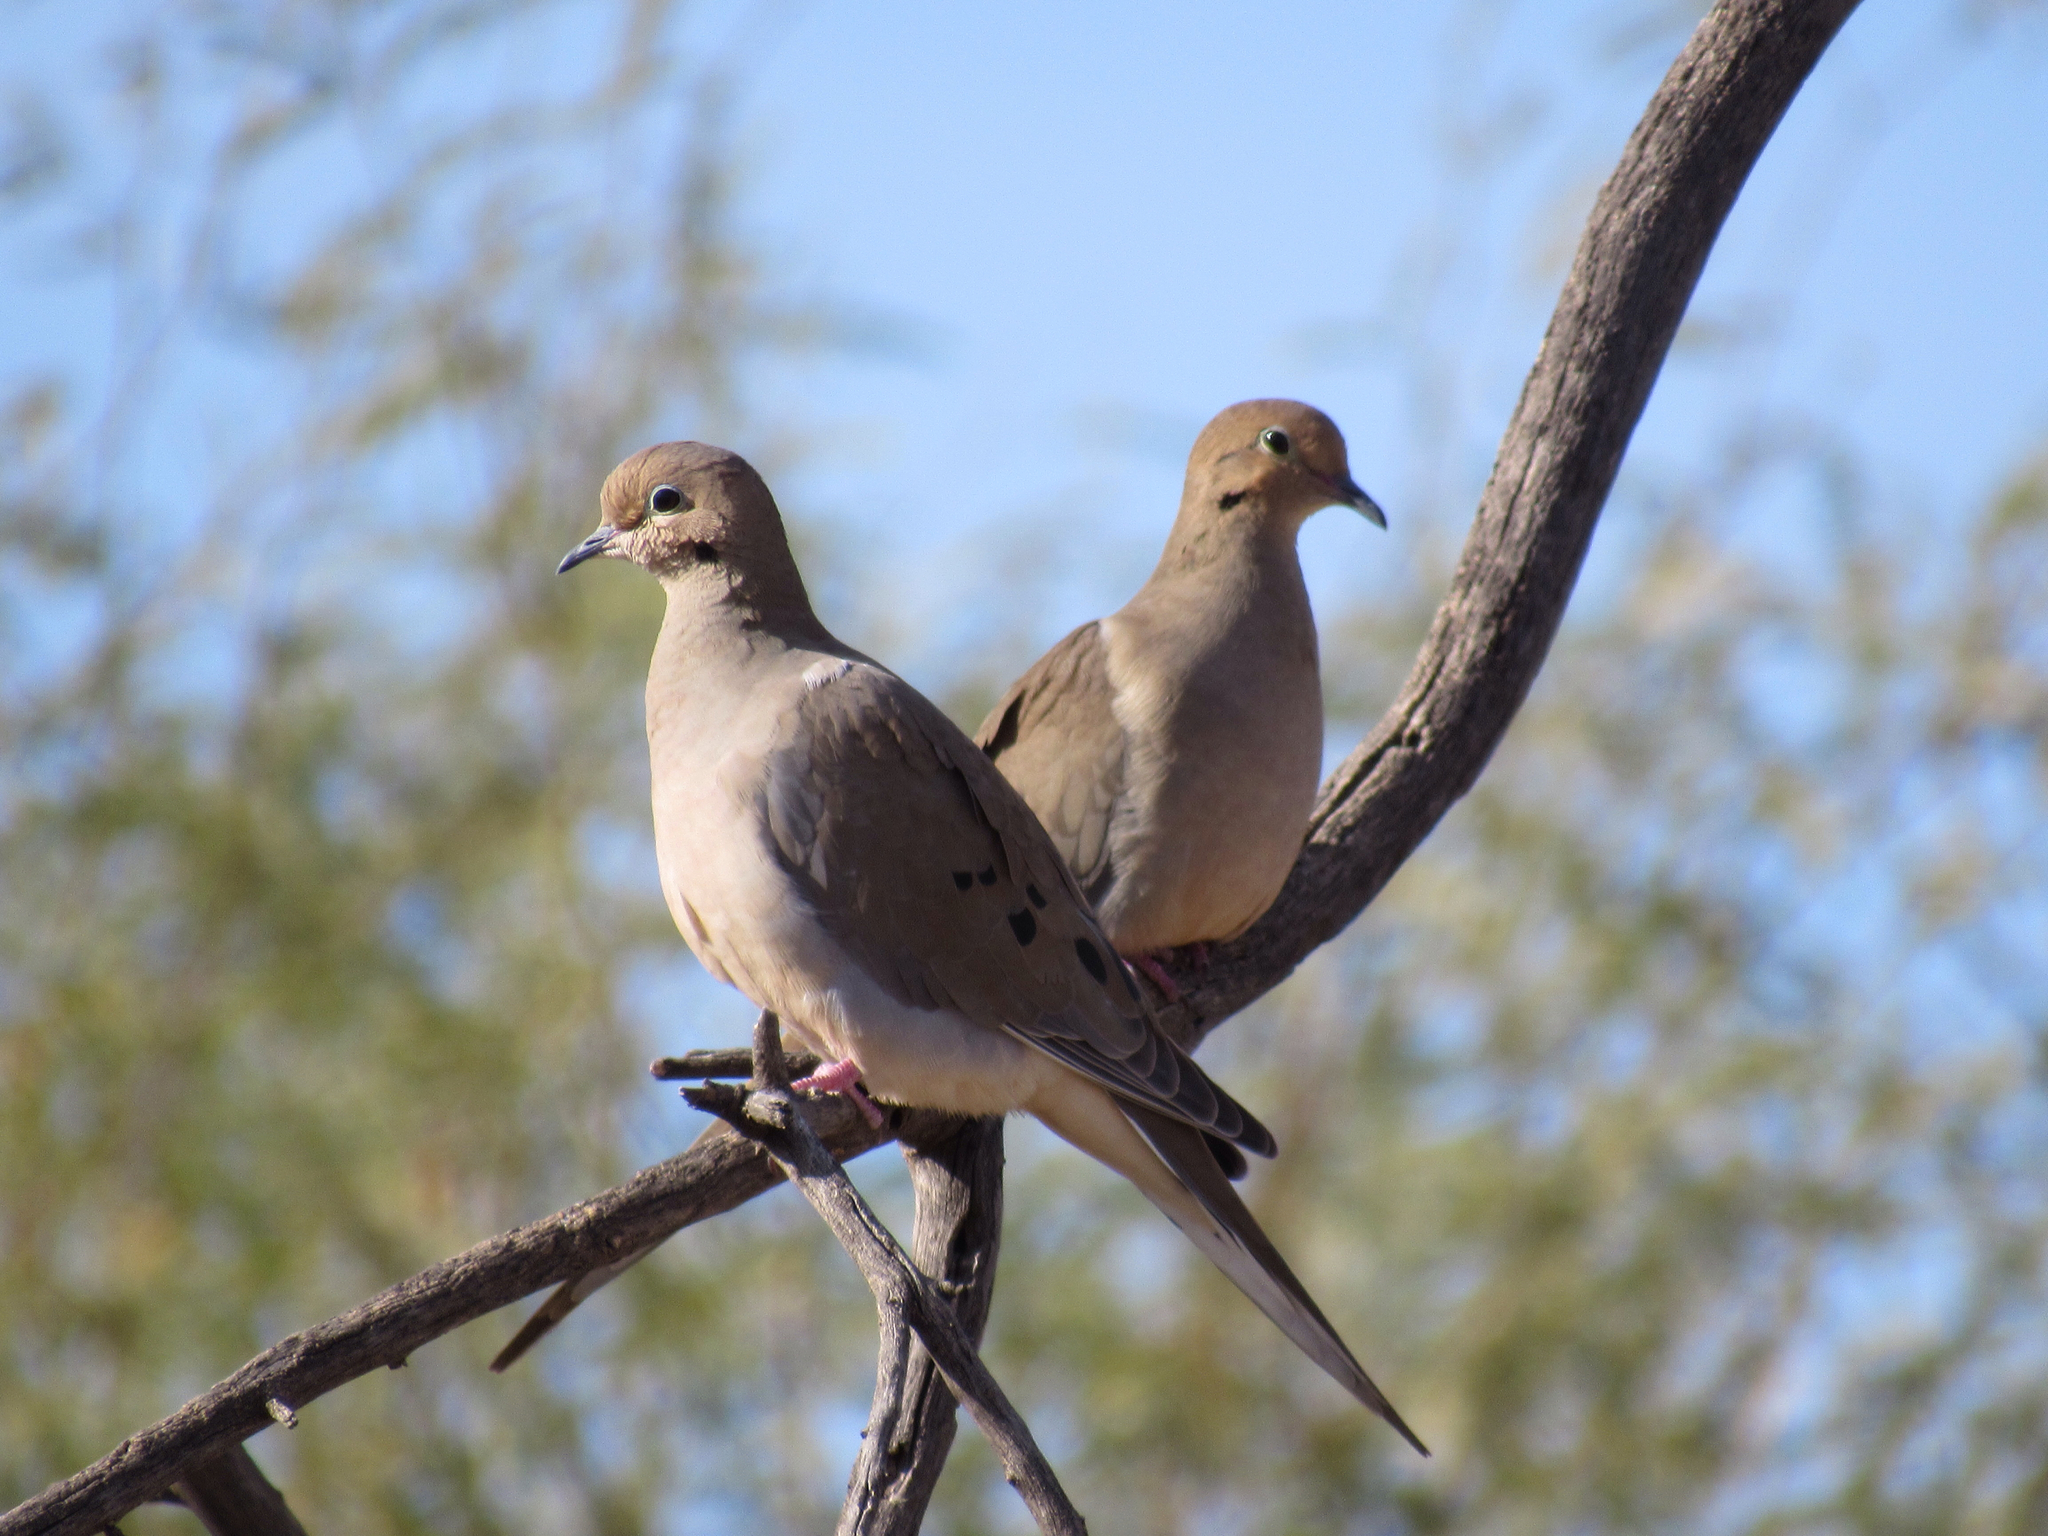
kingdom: Animalia
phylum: Chordata
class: Aves
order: Columbiformes
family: Columbidae
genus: Zenaida
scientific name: Zenaida macroura
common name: Mourning dove
